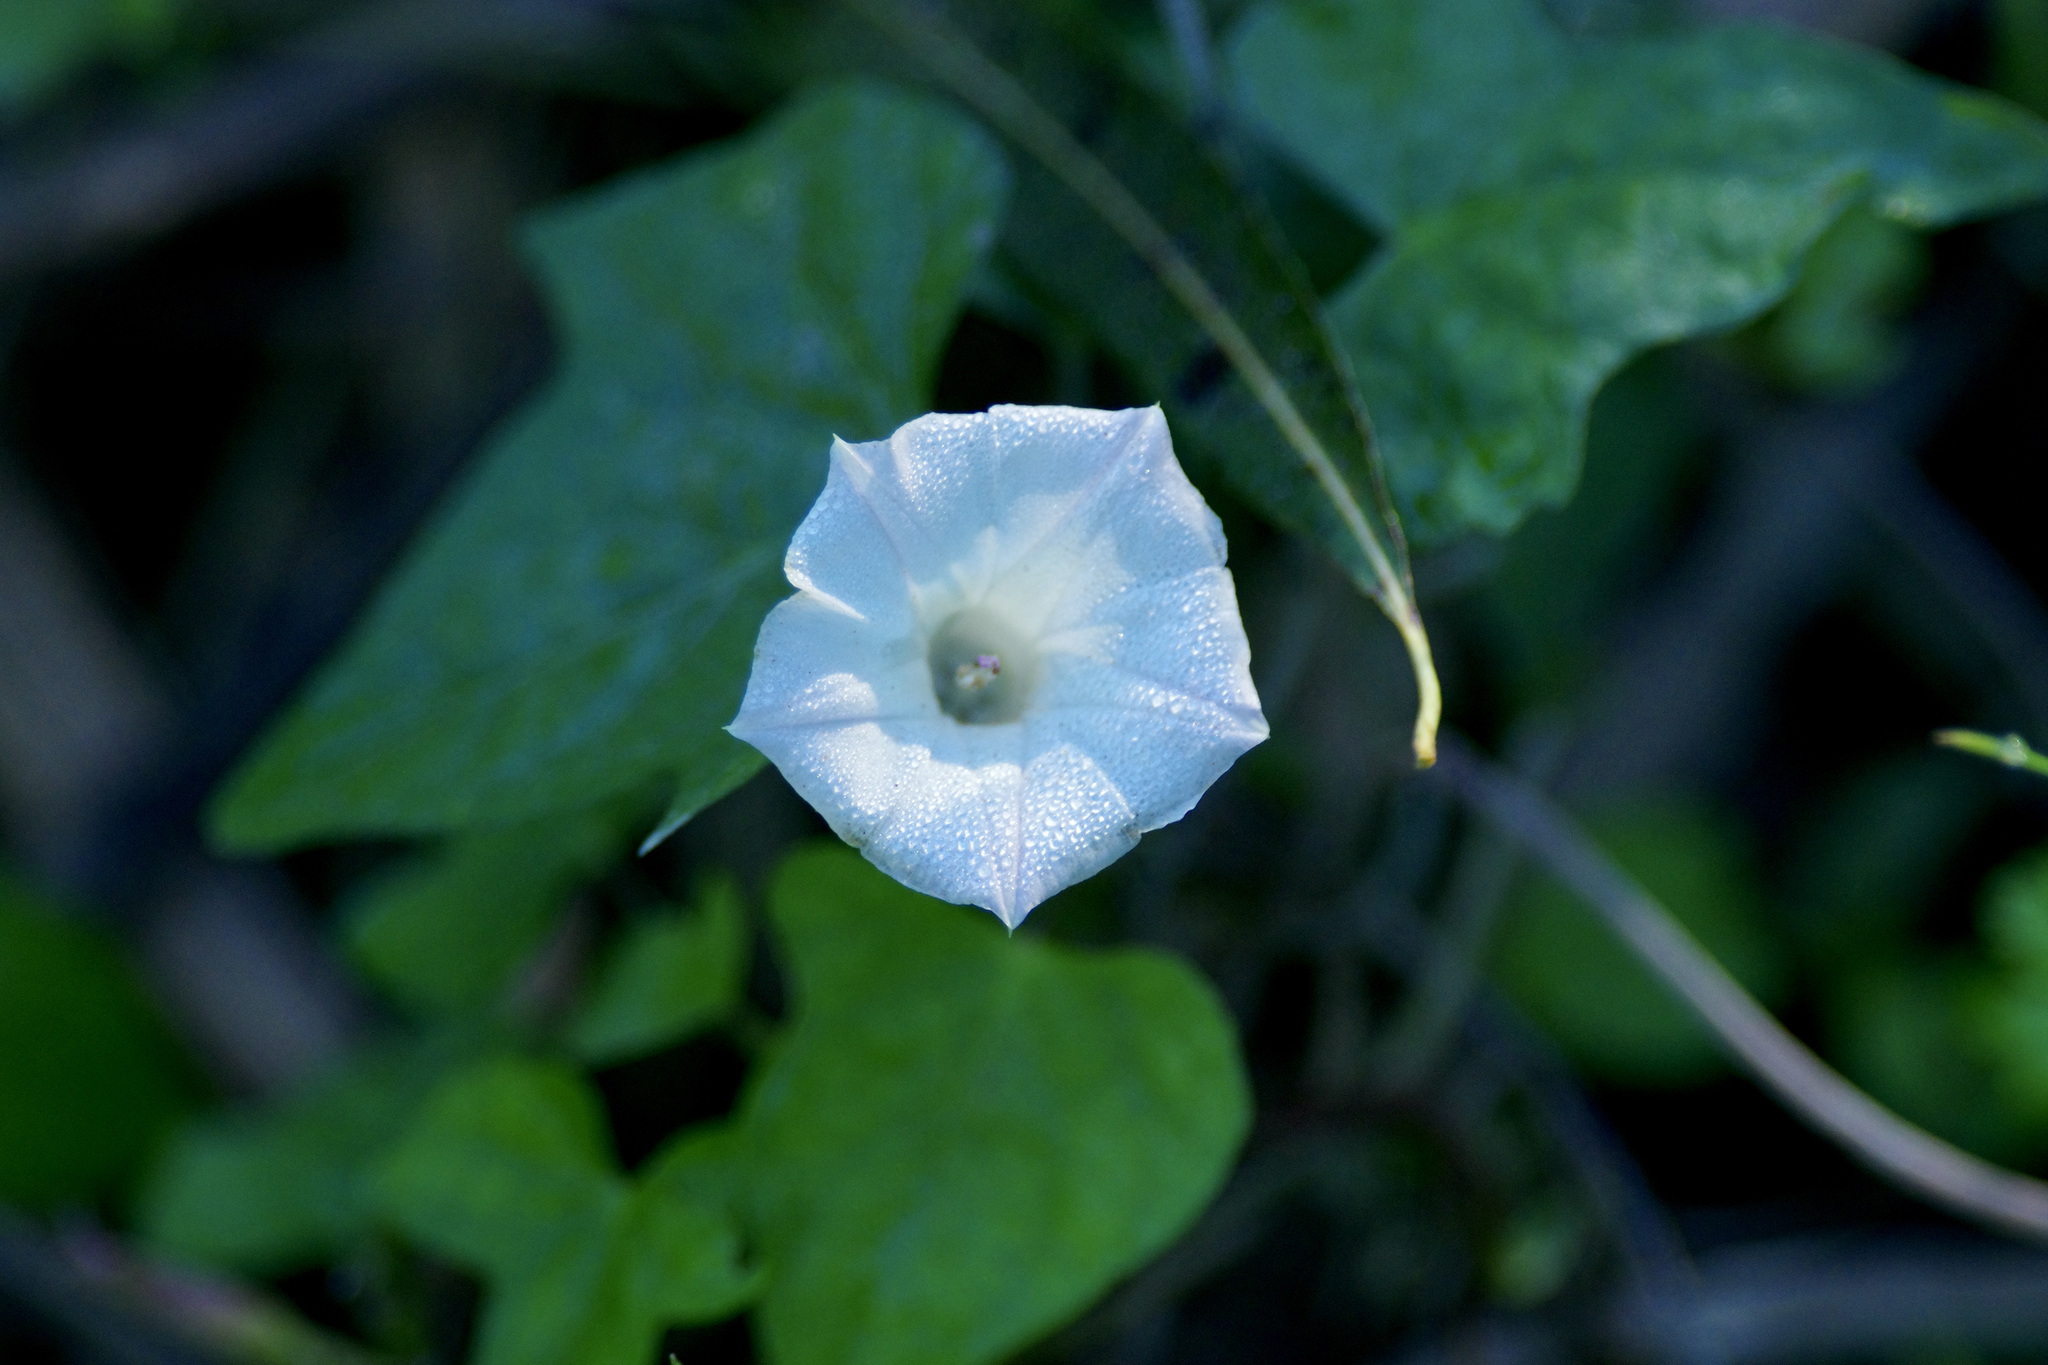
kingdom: Plantae
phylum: Tracheophyta
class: Magnoliopsida
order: Solanales
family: Convolvulaceae
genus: Ipomoea
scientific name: Ipomoea lacunosa
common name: White morning-glory
